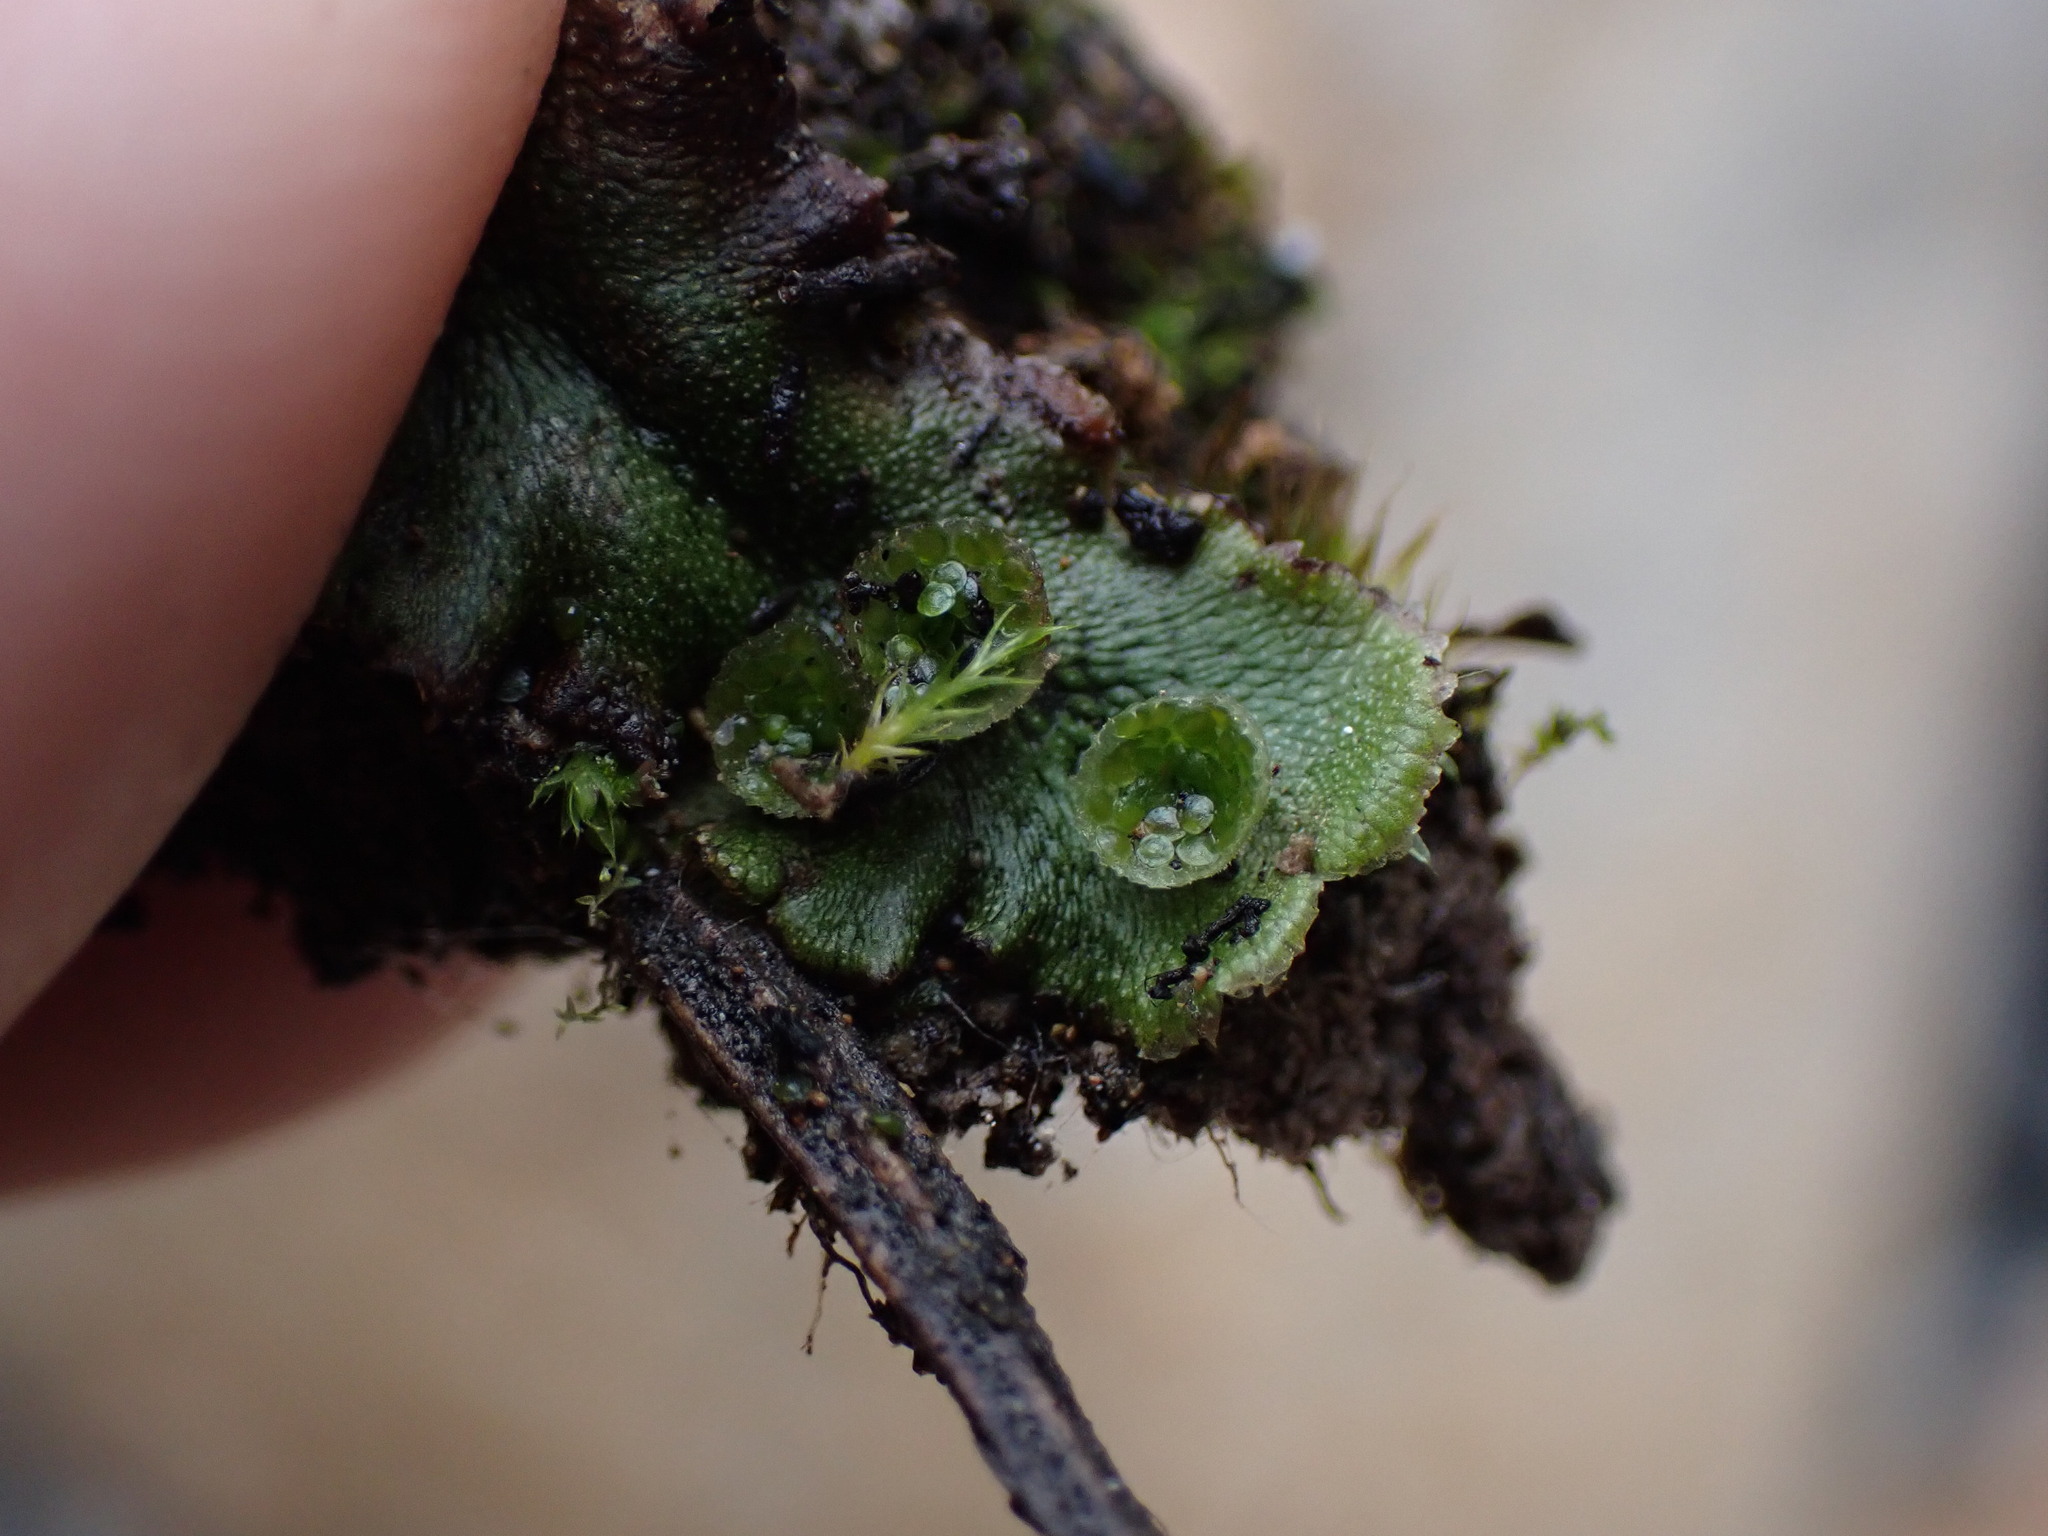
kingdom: Plantae
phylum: Marchantiophyta
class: Marchantiopsida
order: Marchantiales
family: Marchantiaceae
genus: Marchantia
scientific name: Marchantia polymorpha
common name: Common liverwort
